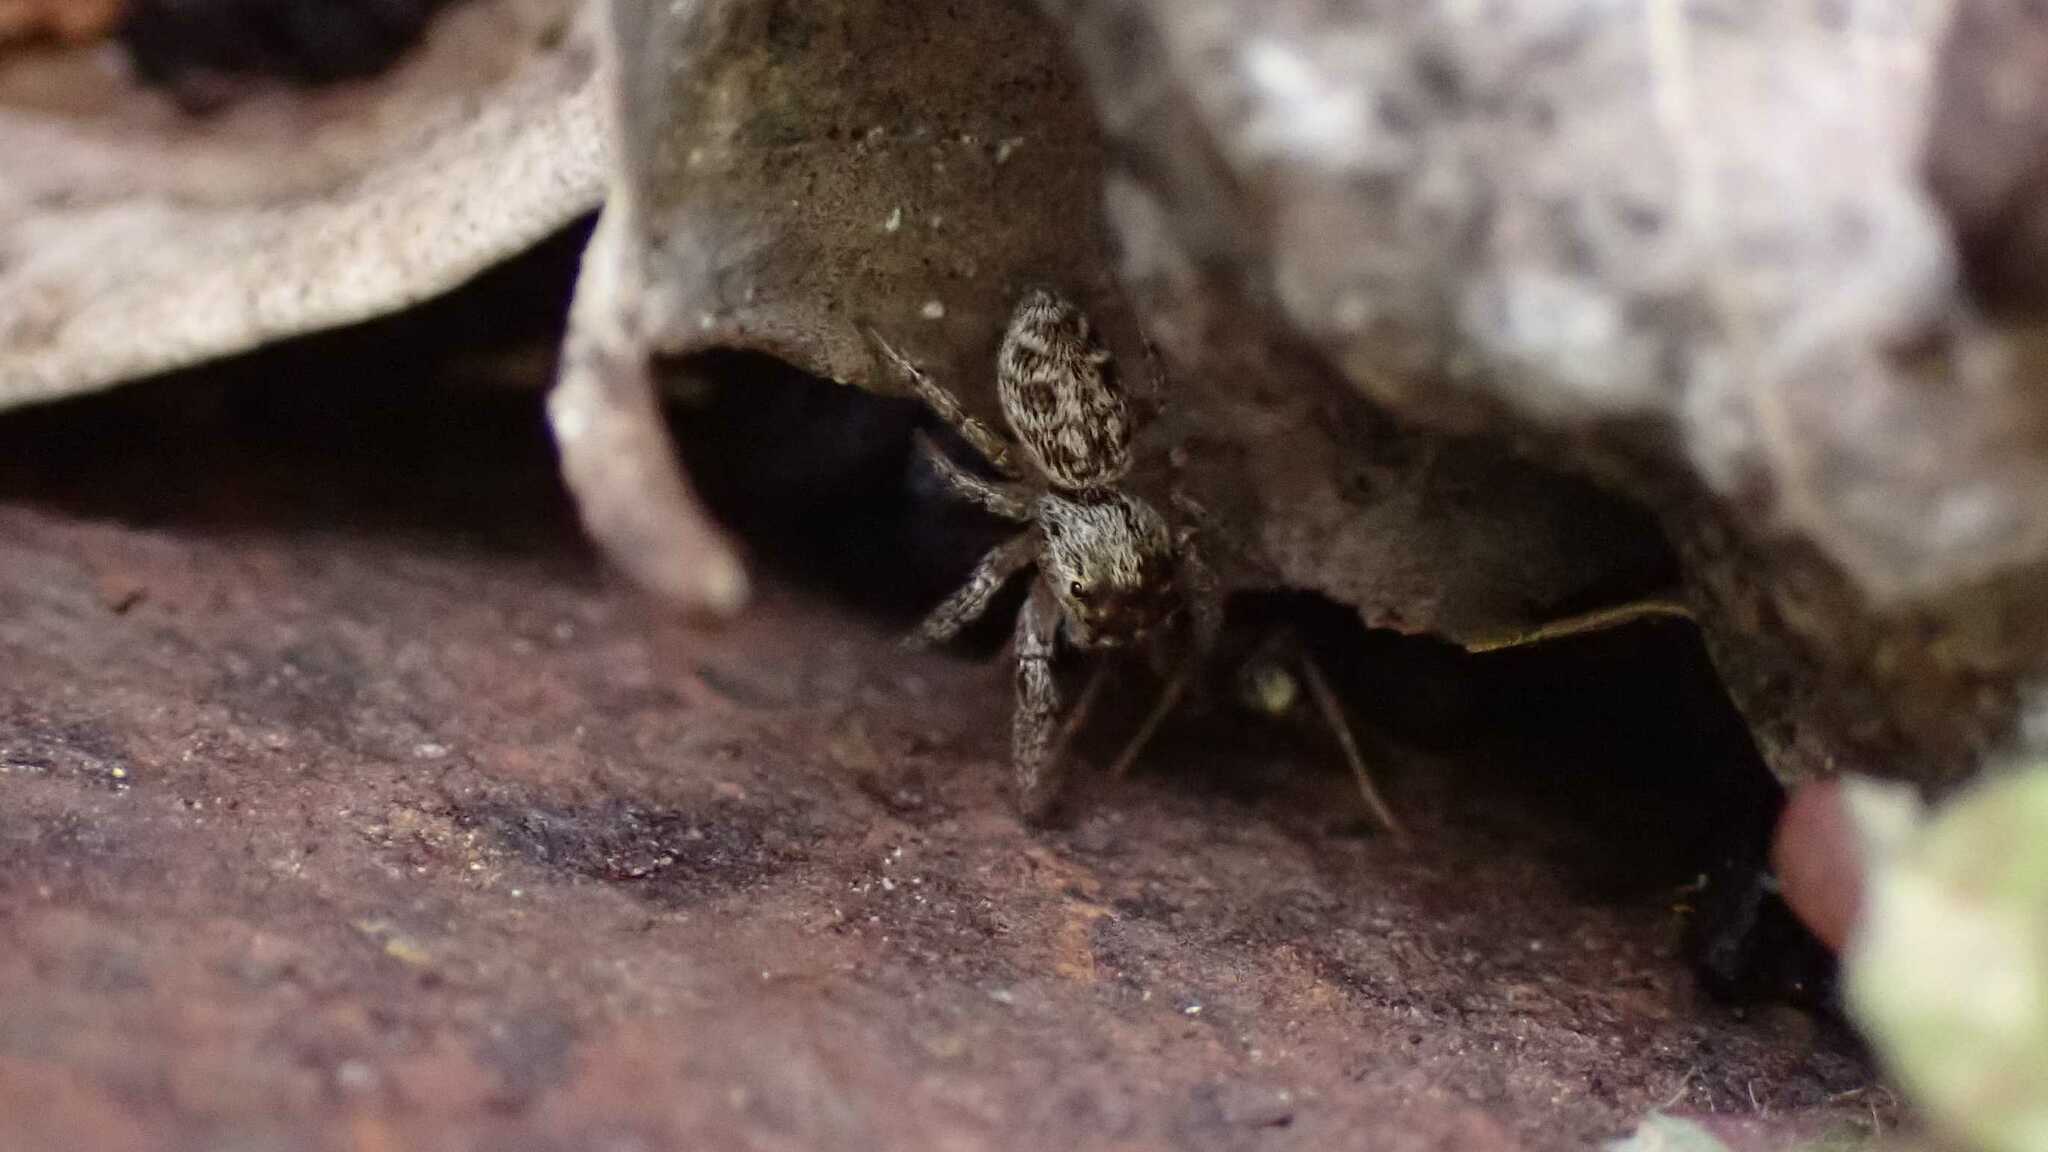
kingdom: Animalia
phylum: Arthropoda
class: Arachnida
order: Araneae
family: Salticidae
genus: Macaroeris
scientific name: Macaroeris nidicolens
